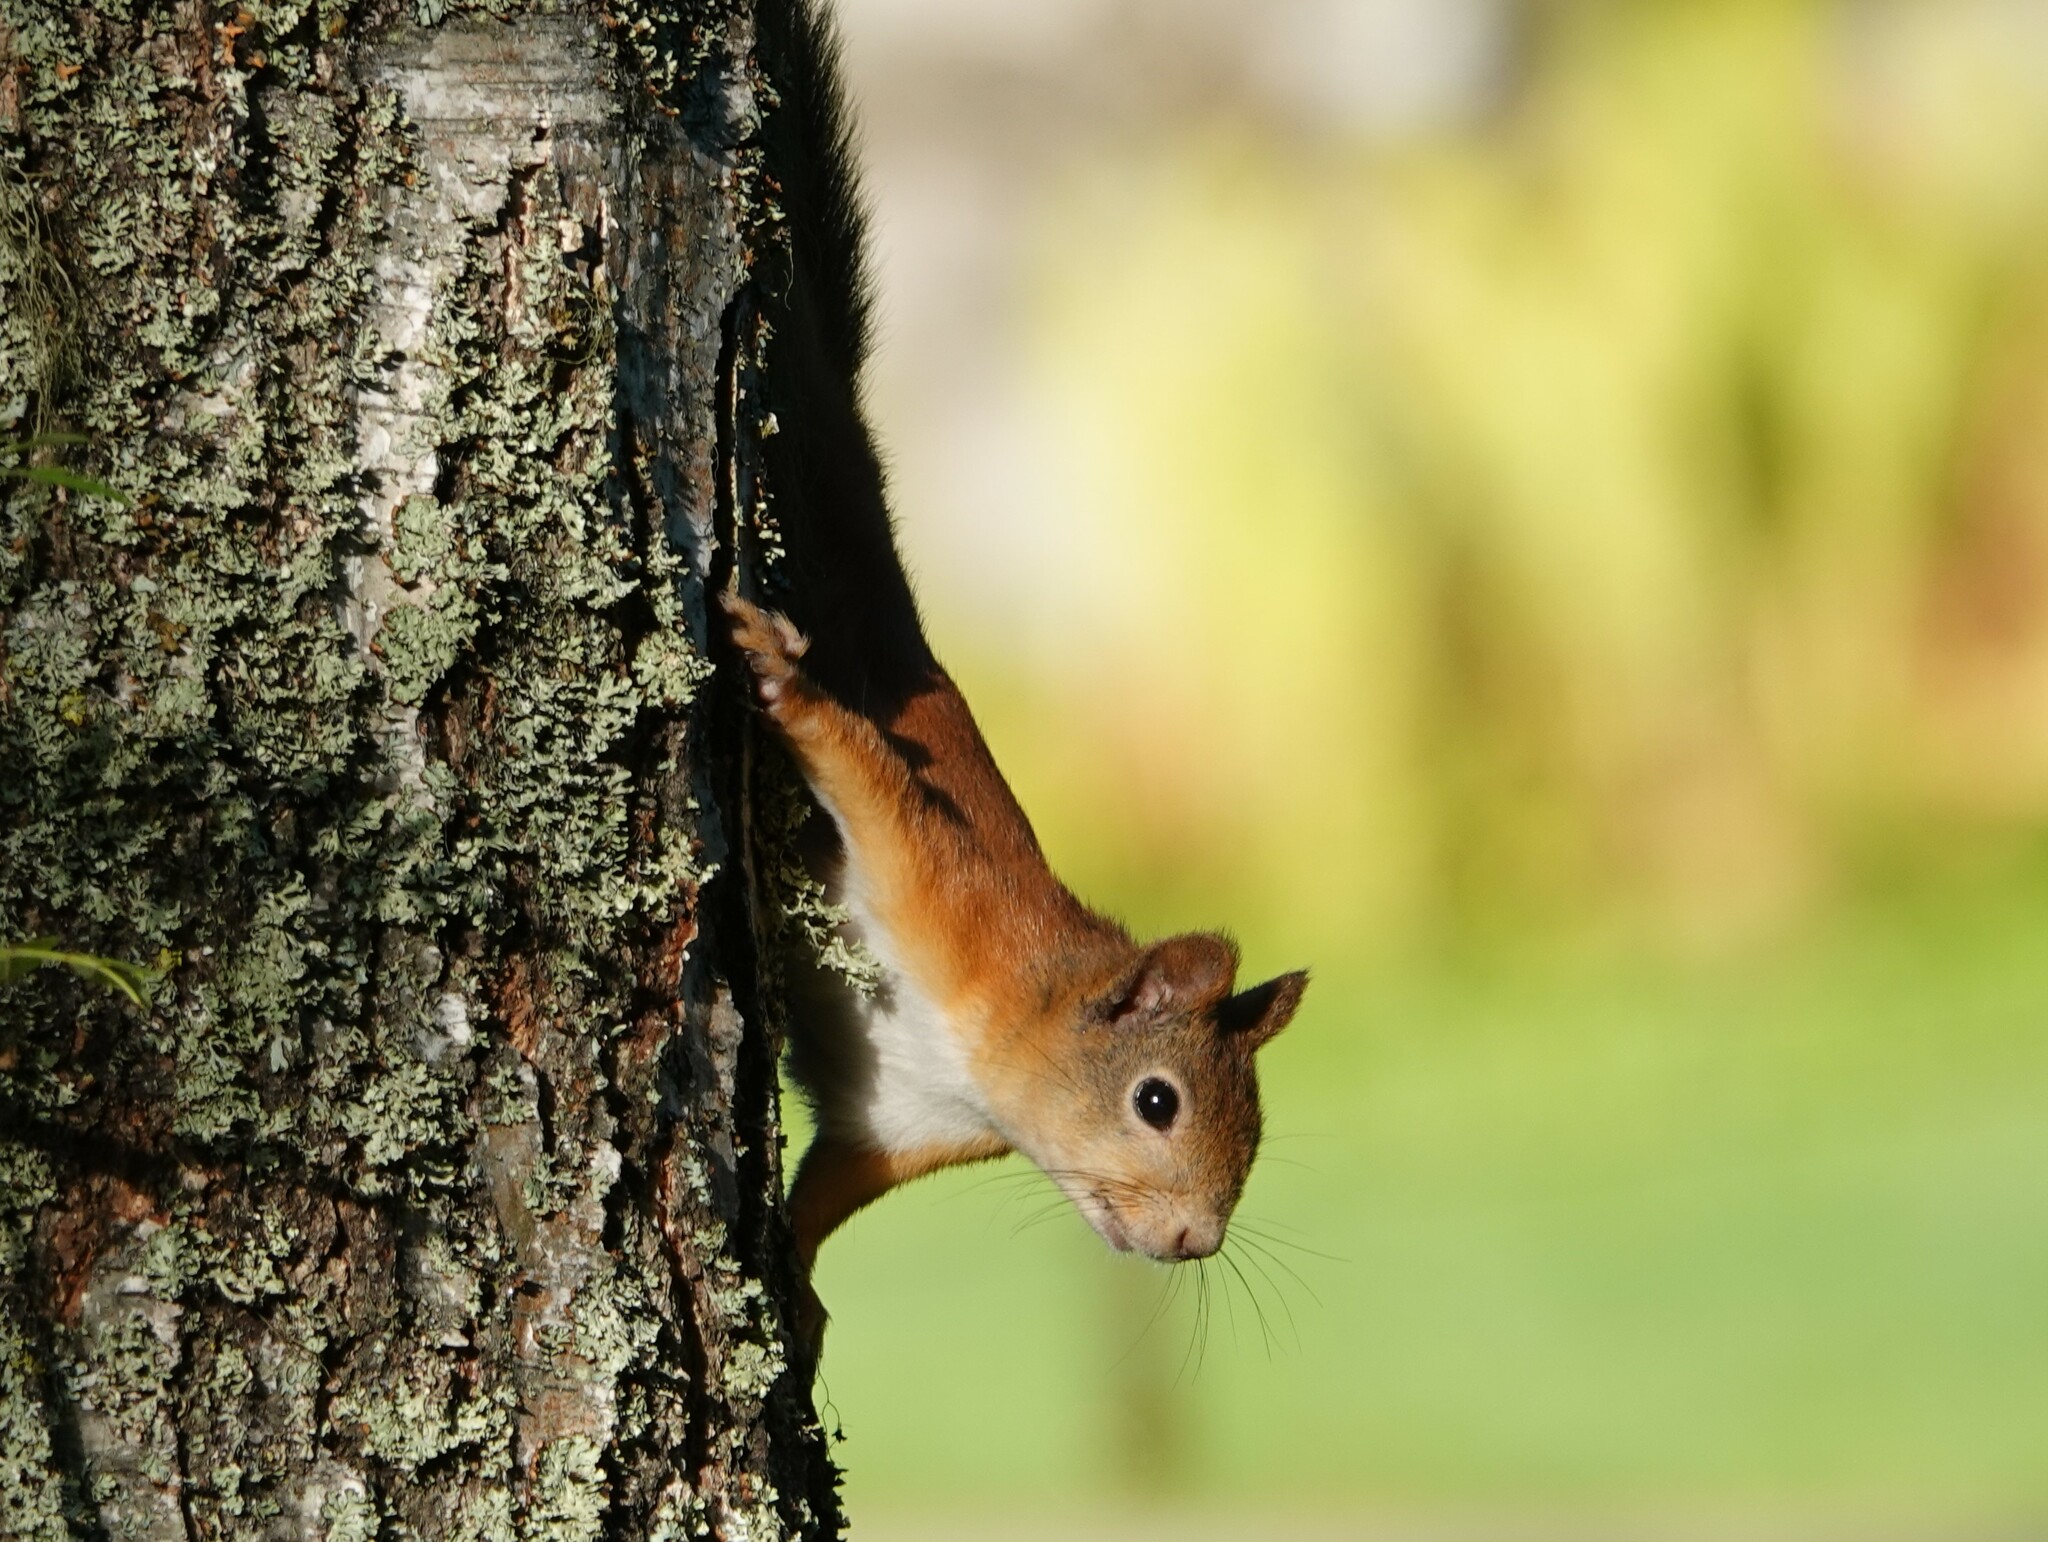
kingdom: Animalia
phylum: Chordata
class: Mammalia
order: Rodentia
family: Sciuridae
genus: Sciurus
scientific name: Sciurus vulgaris
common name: Eurasian red squirrel
